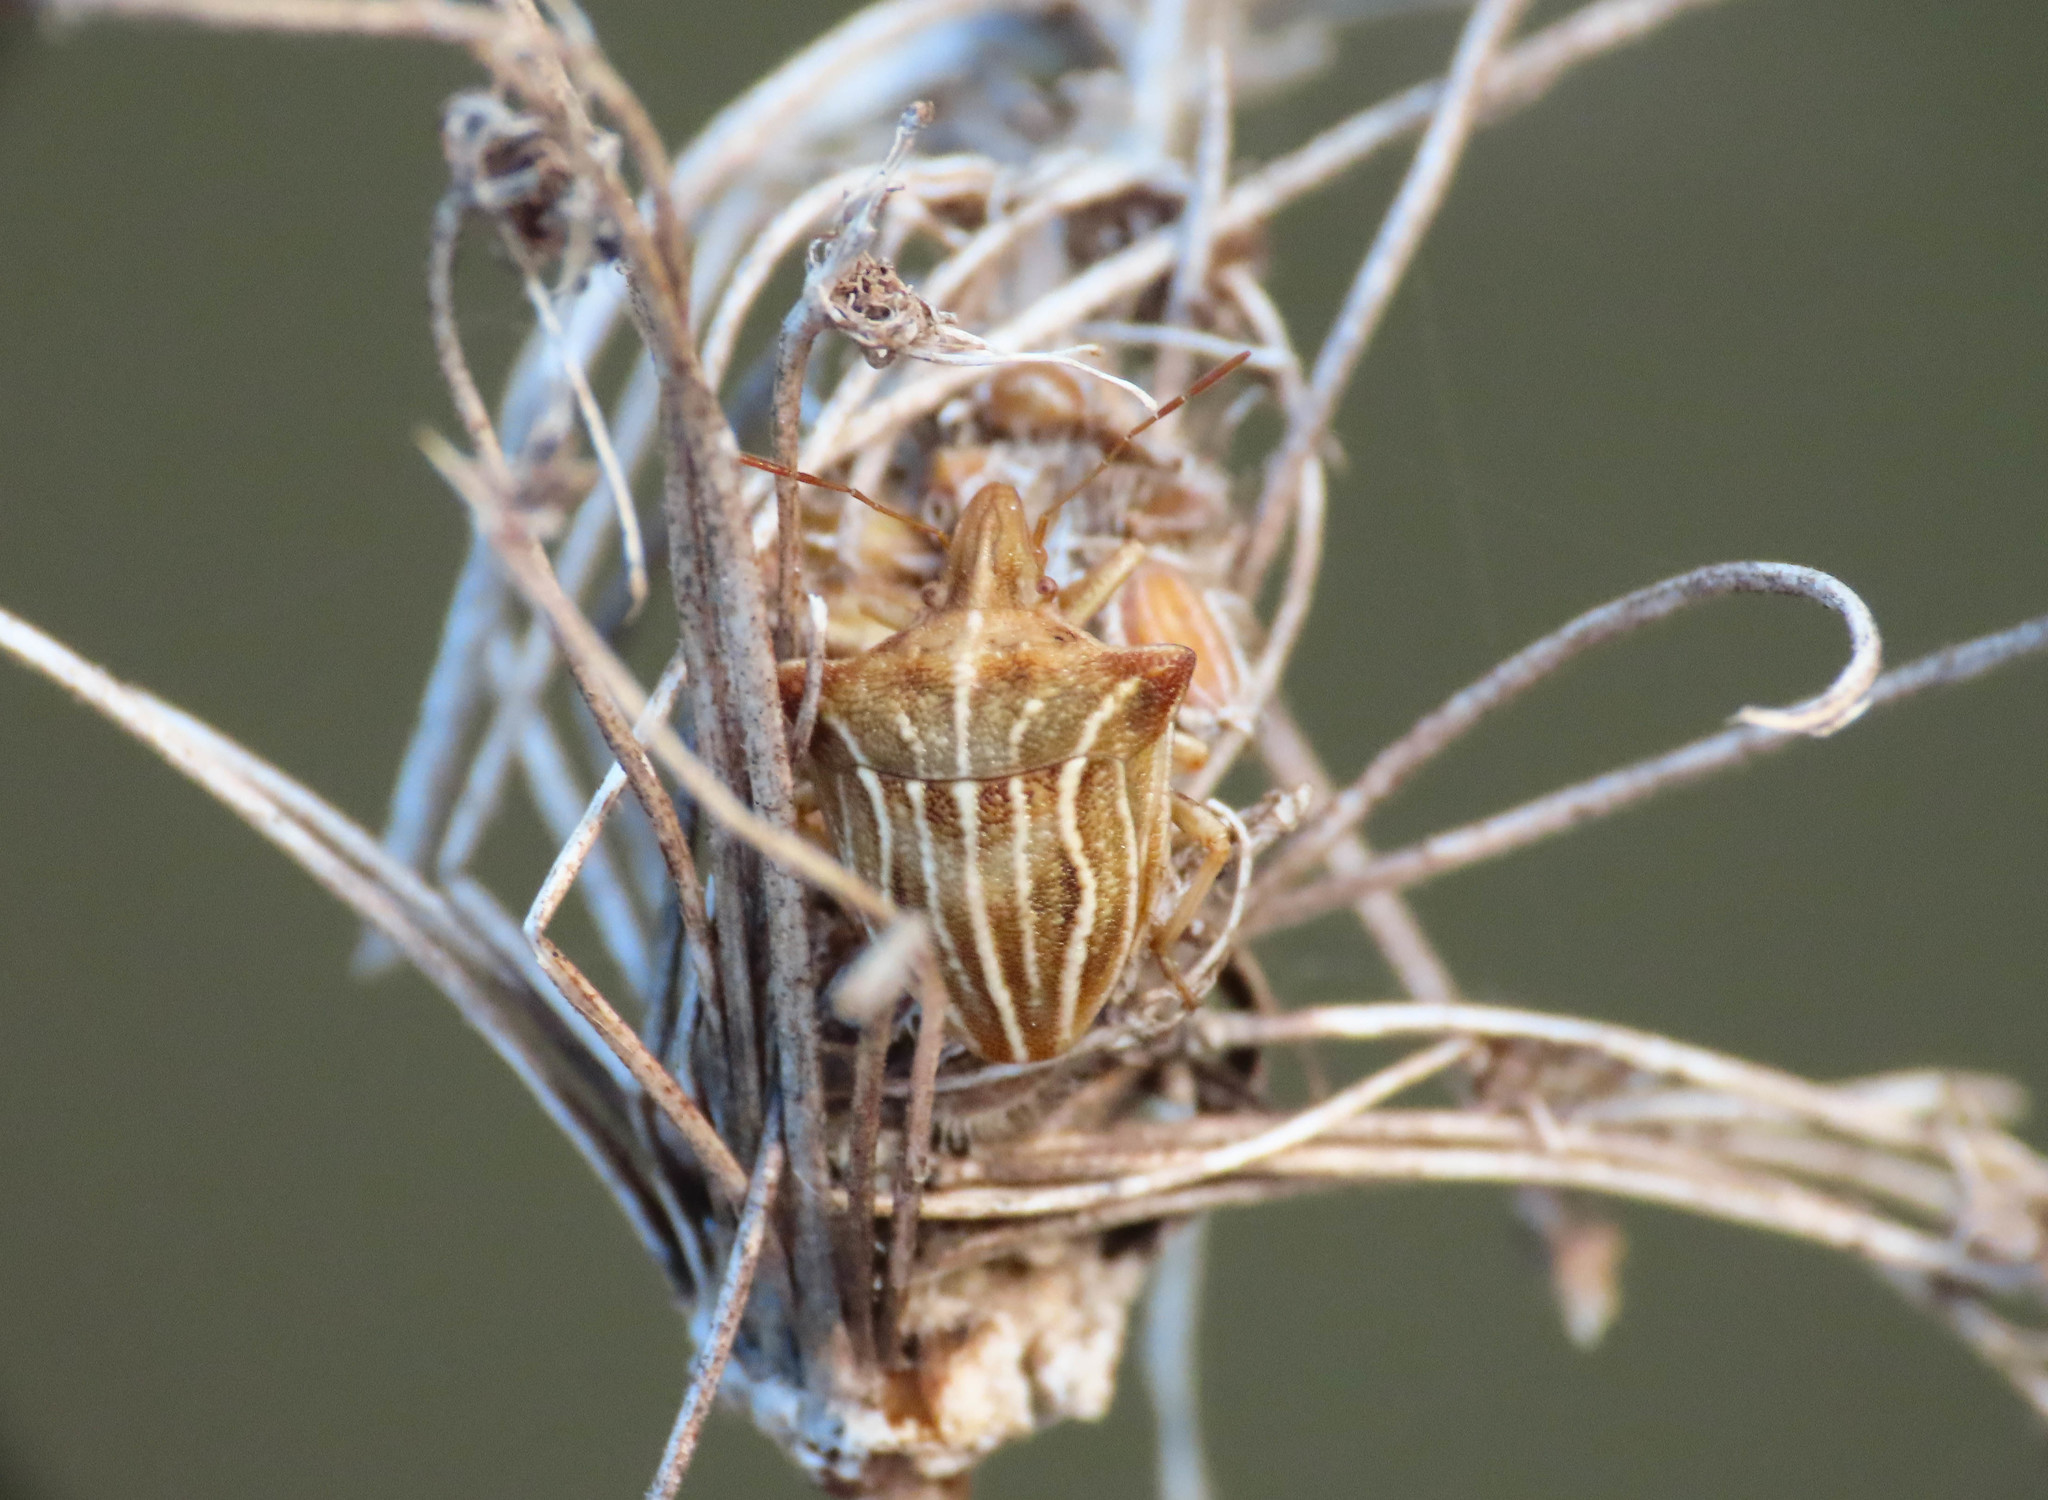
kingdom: Animalia
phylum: Arthropoda
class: Insecta
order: Hemiptera
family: Pentatomidae
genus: Ancyrosoma
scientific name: Ancyrosoma leucogrammes
